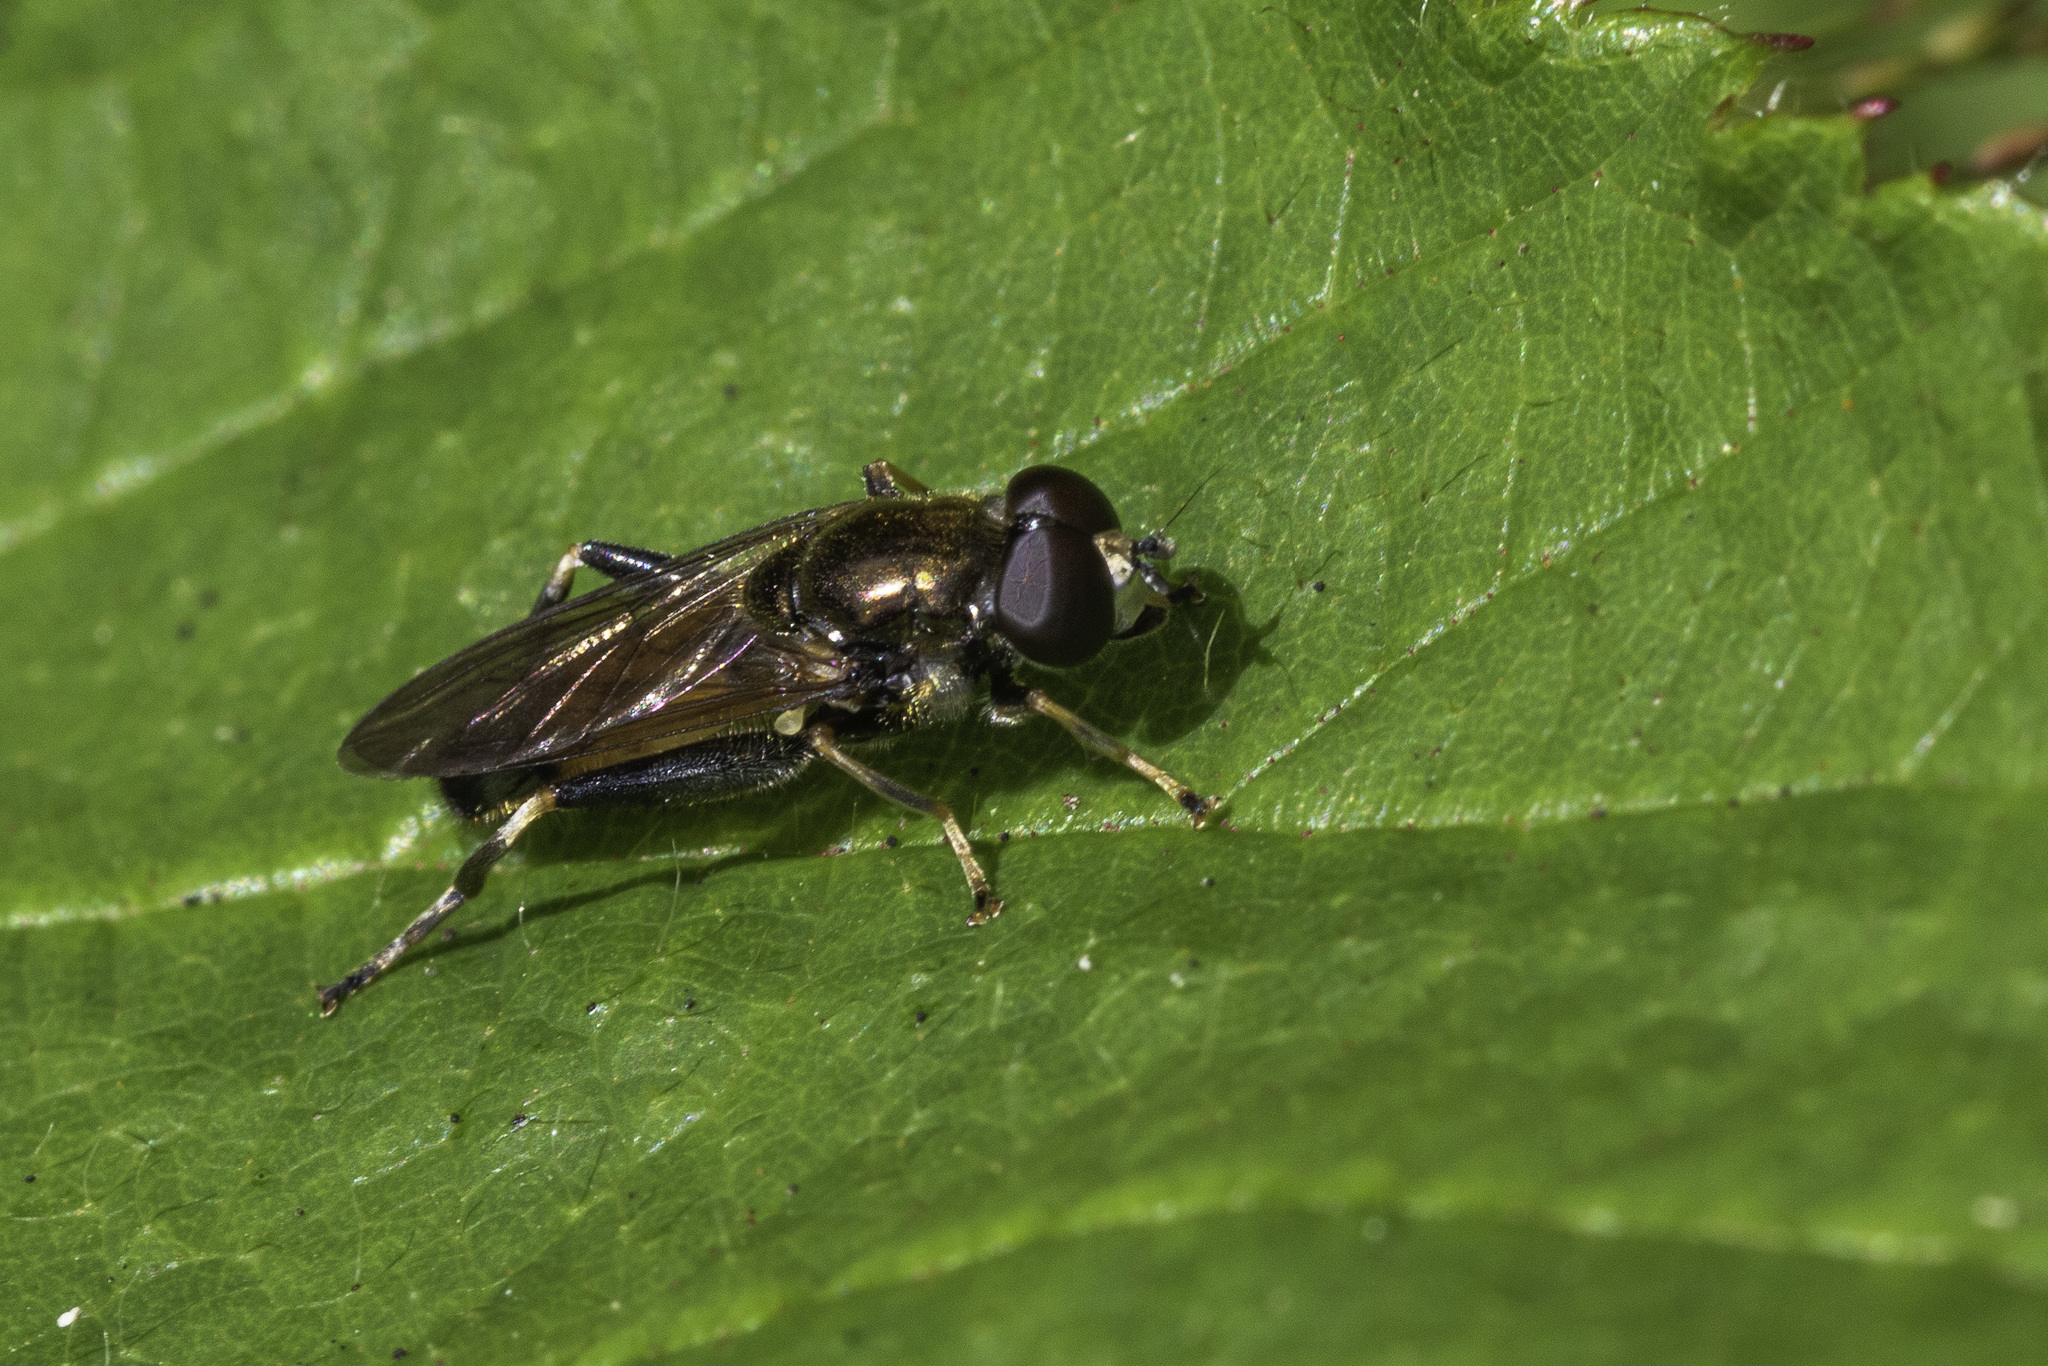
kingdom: Animalia
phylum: Arthropoda
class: Insecta
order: Diptera
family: Syrphidae
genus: Xylota
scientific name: Xylota segnis
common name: Brown-toed forest fly
